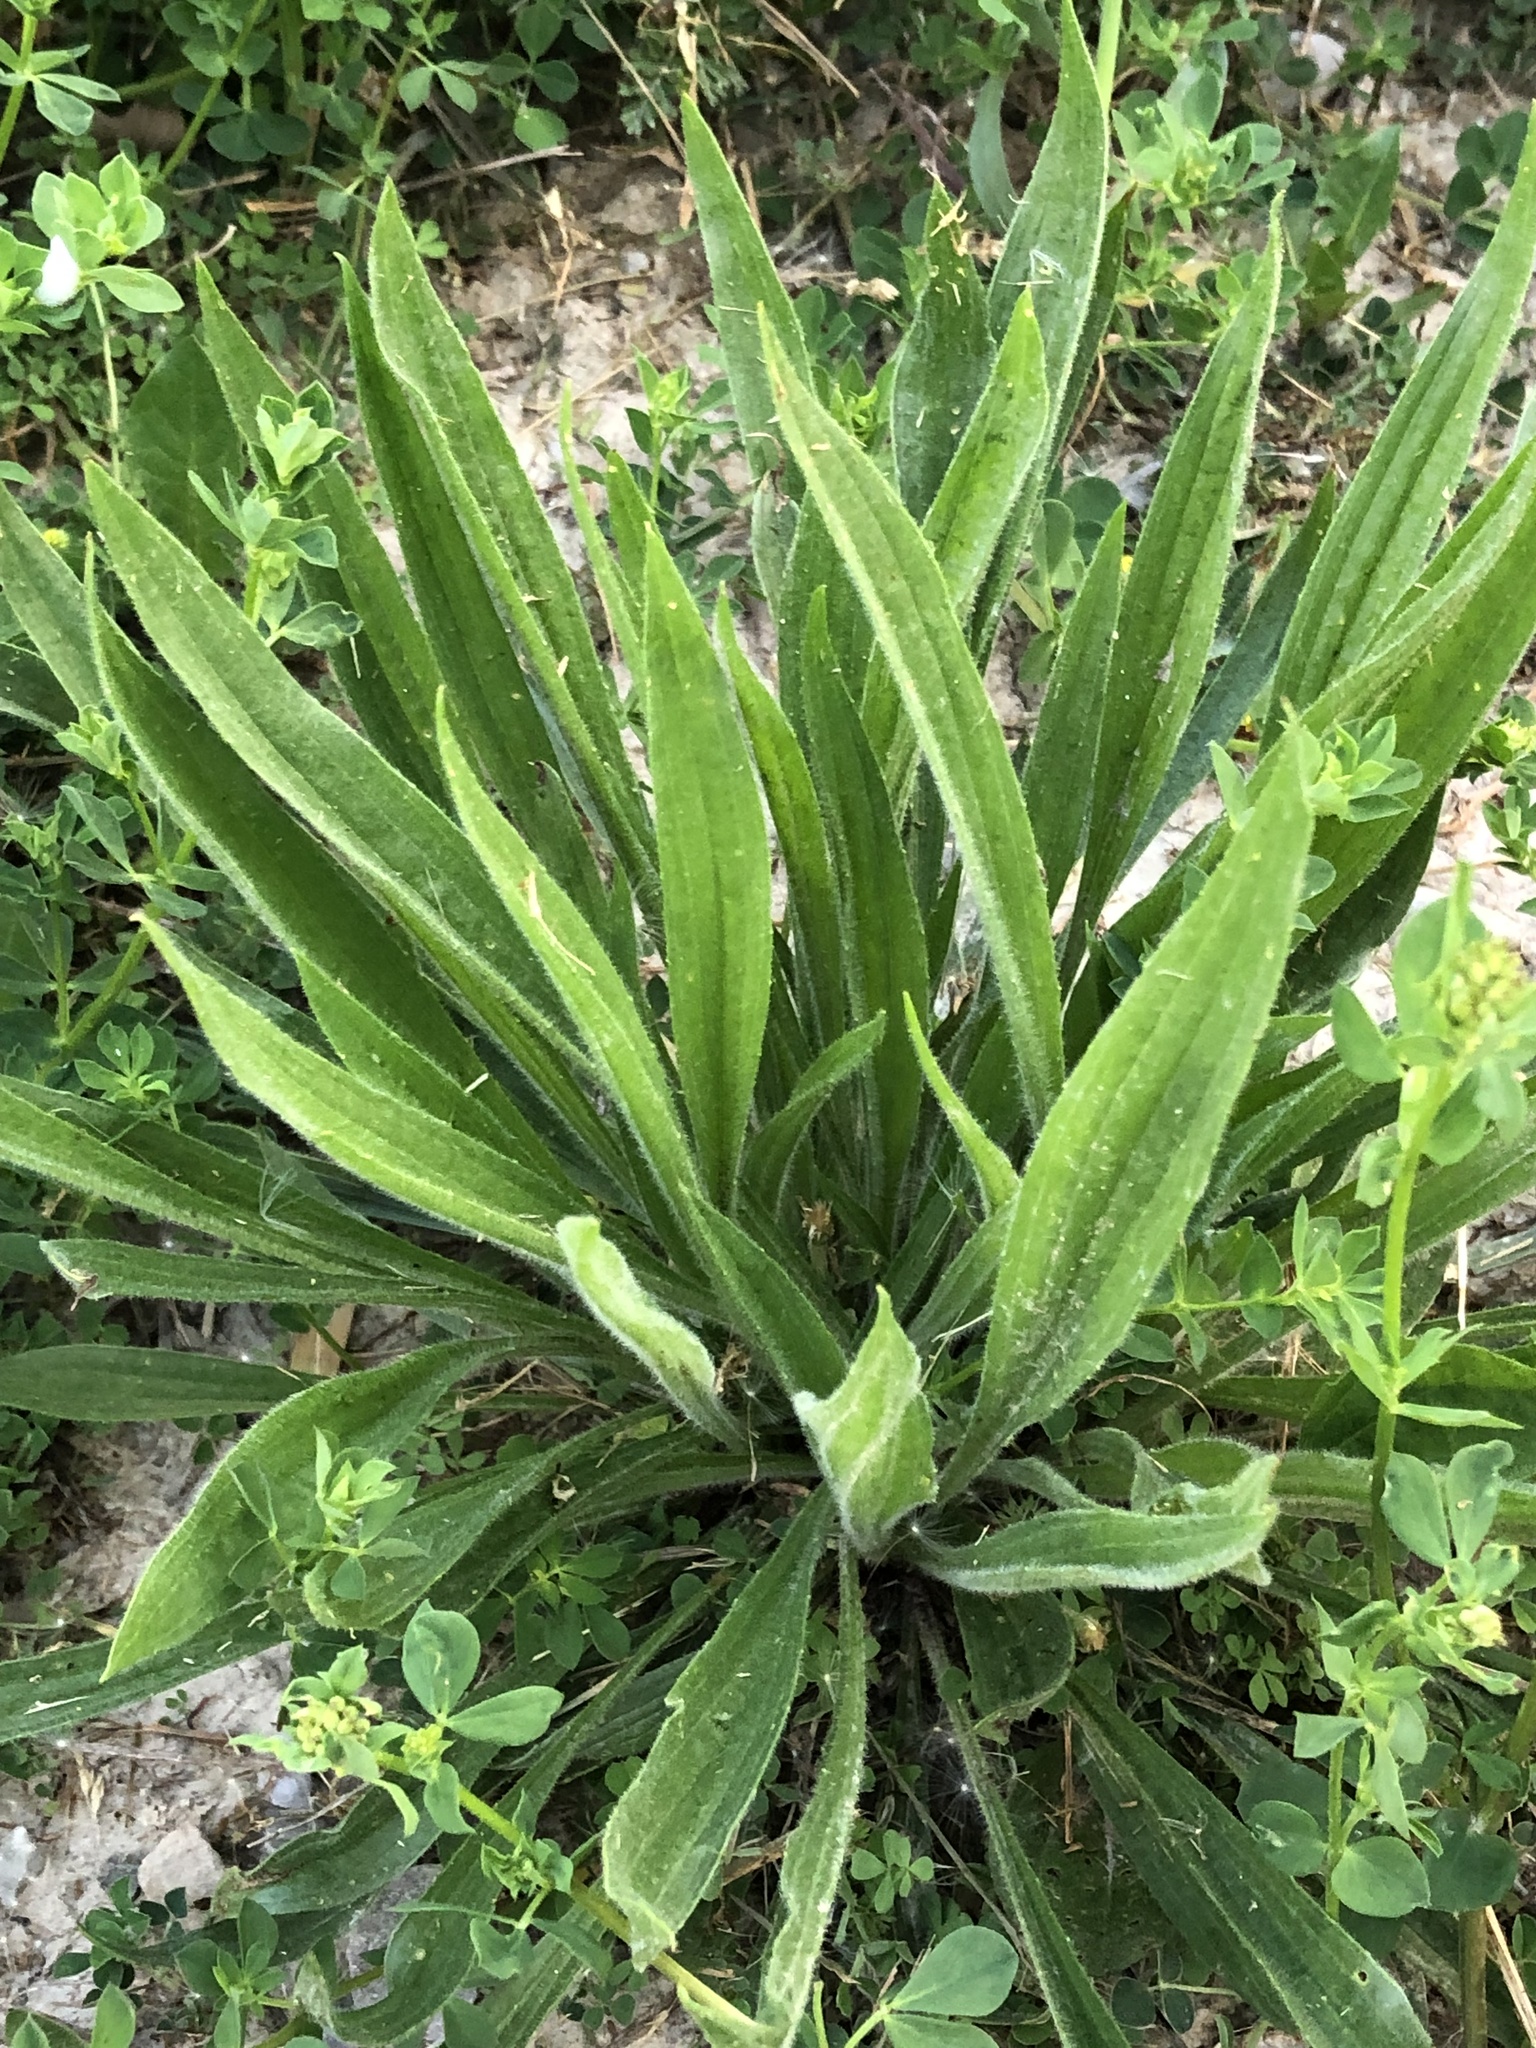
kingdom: Plantae
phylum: Tracheophyta
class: Magnoliopsida
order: Lamiales
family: Plantaginaceae
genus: Plantago
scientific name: Plantago lanceolata
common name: Ribwort plantain
